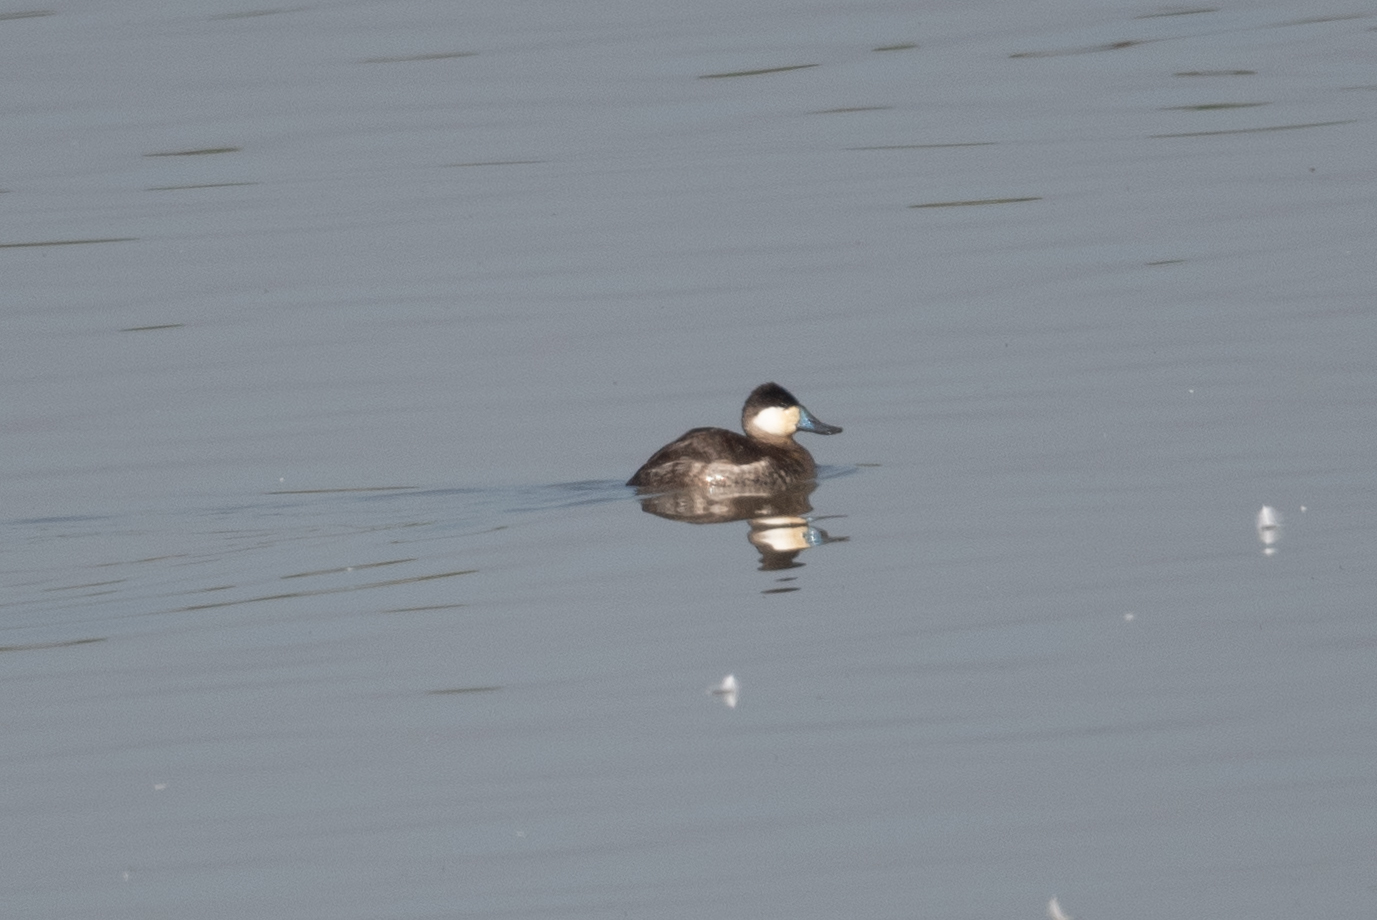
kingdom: Animalia
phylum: Chordata
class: Aves
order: Anseriformes
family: Anatidae
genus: Oxyura
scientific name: Oxyura jamaicensis
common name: Ruddy duck
